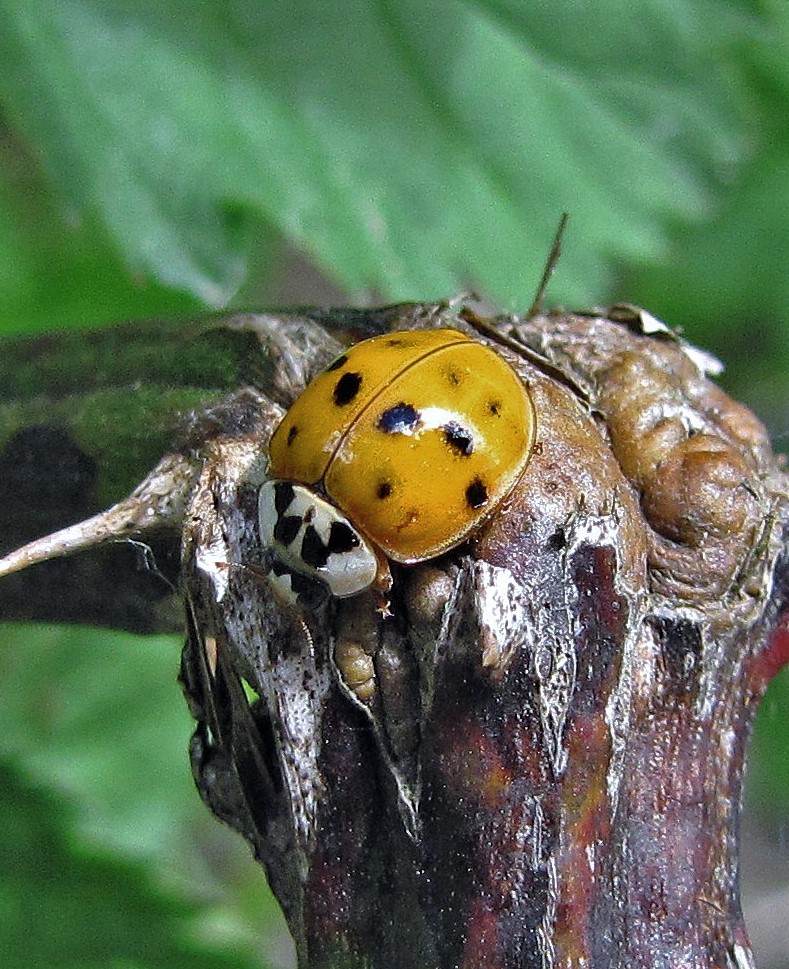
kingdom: Animalia
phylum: Arthropoda
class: Insecta
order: Coleoptera
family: Coccinellidae
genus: Harmonia
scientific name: Harmonia axyridis
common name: Harlequin ladybird
